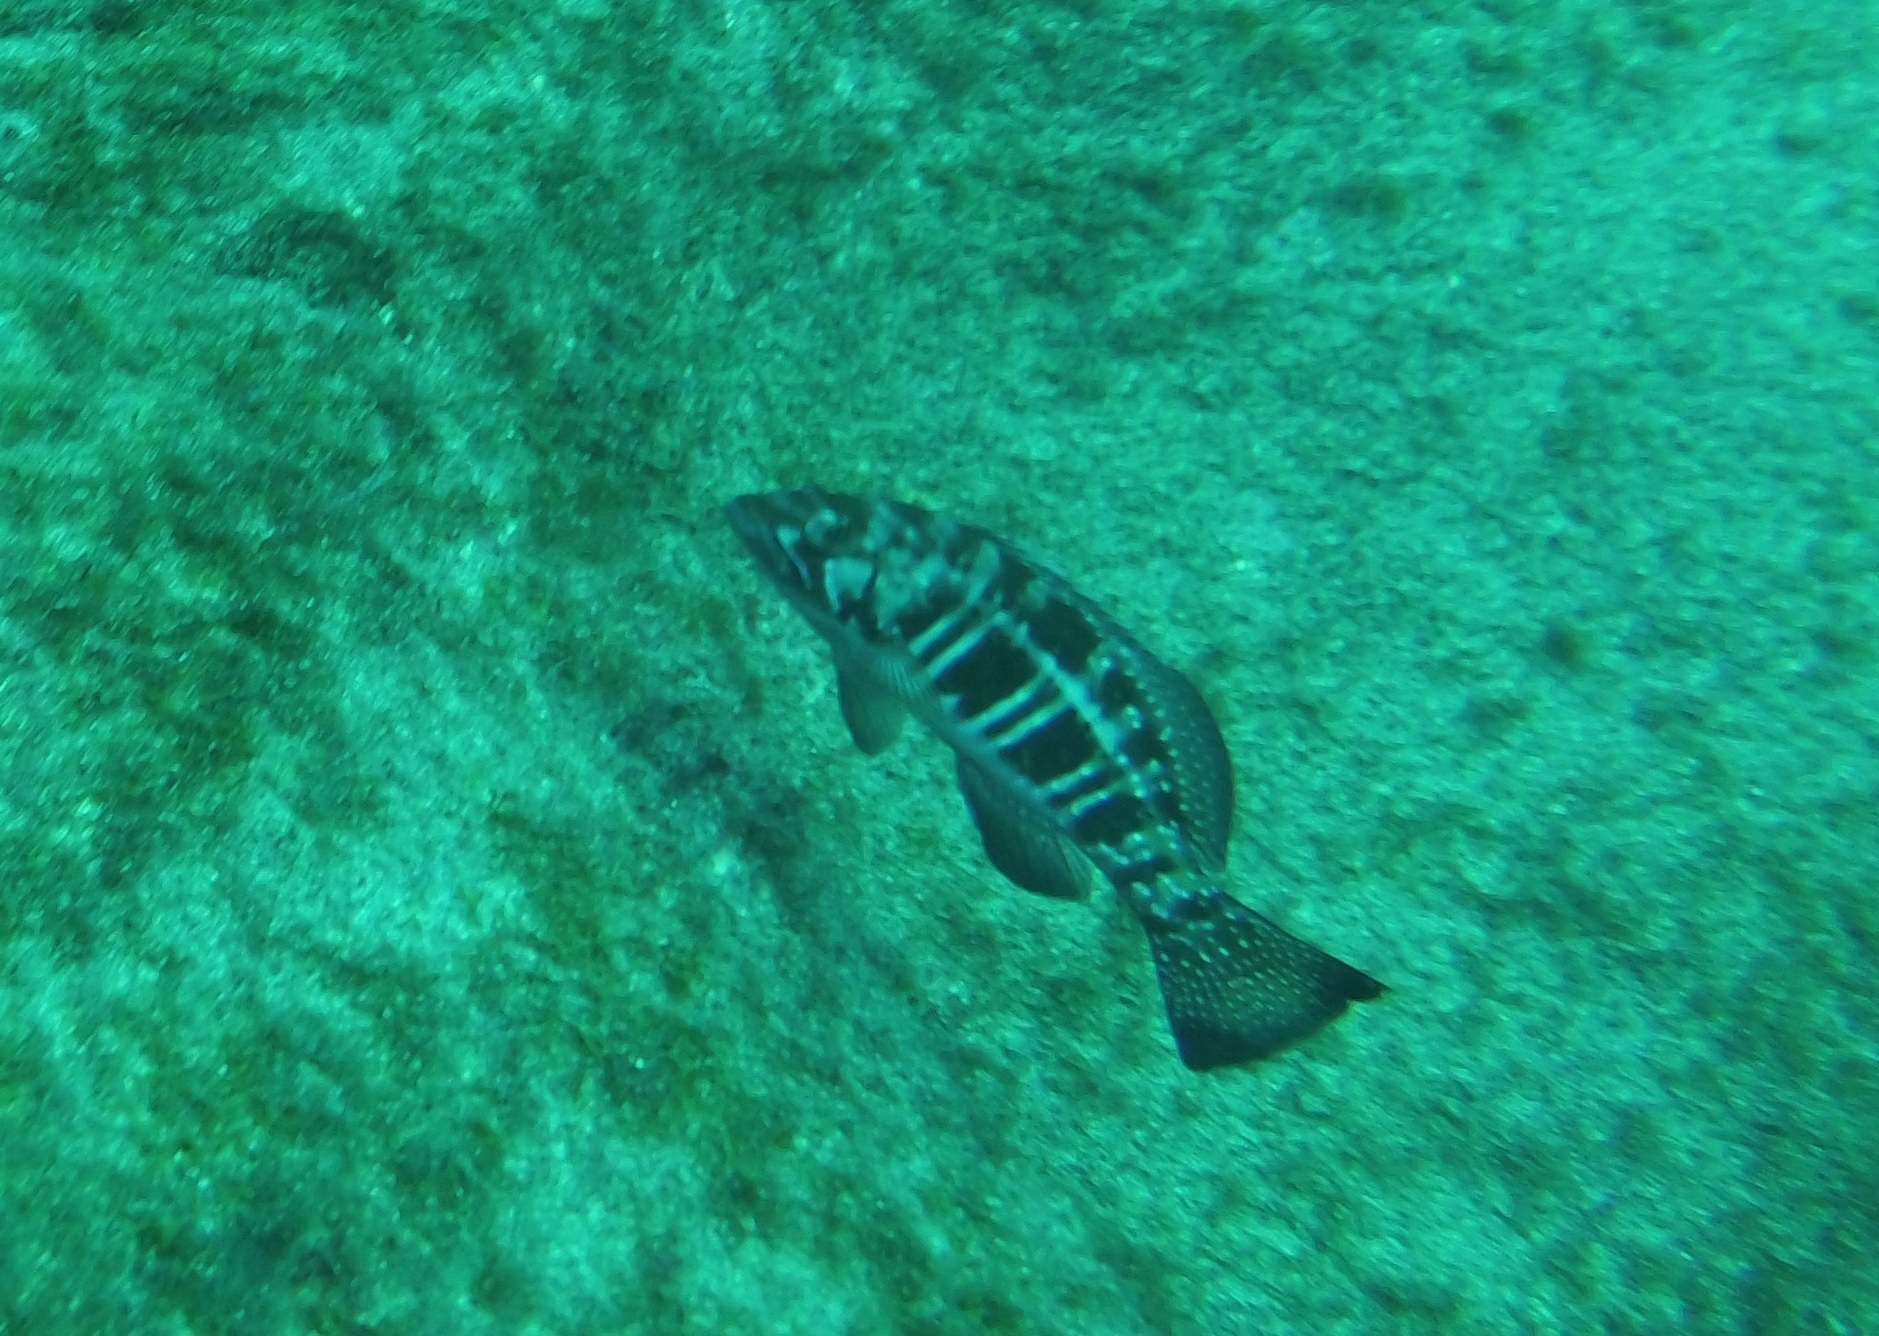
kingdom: Animalia
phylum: Chordata
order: Perciformes
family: Serranidae
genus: Serranus
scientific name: Serranus atricauda
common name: Blacktail comber
